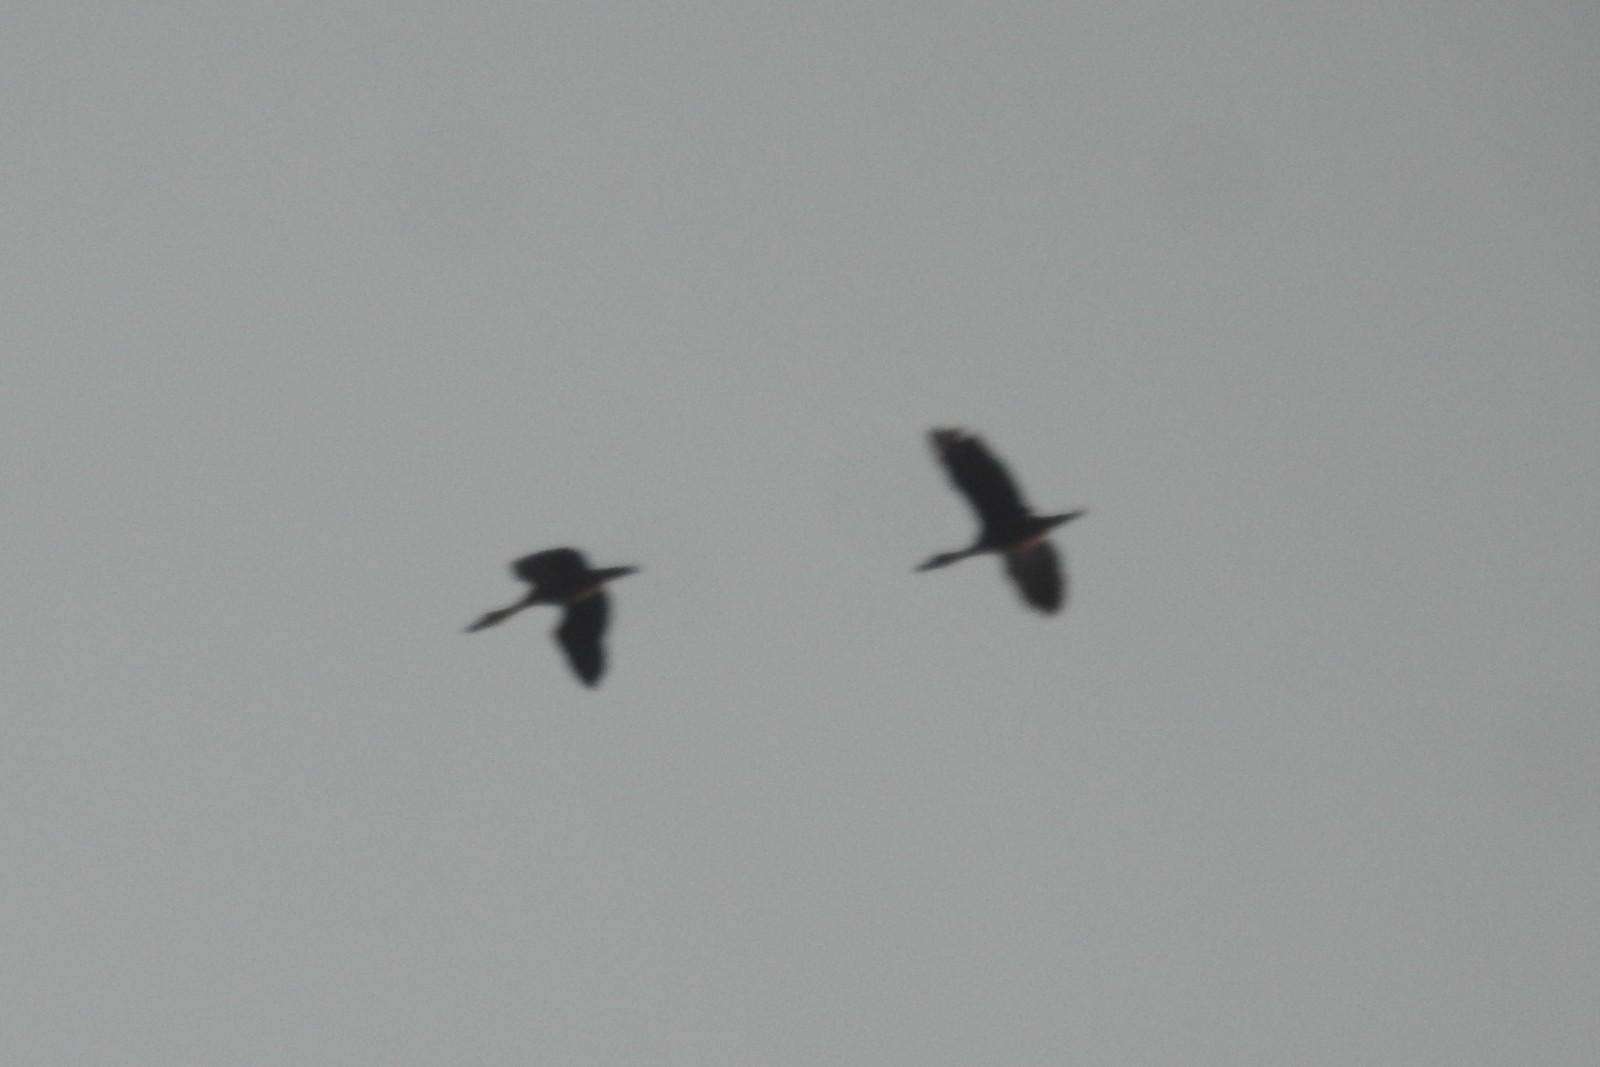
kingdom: Animalia
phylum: Chordata
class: Aves
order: Anseriformes
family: Anatidae
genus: Dendrocygna
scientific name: Dendrocygna javanica
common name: Lesser whistling-duck
